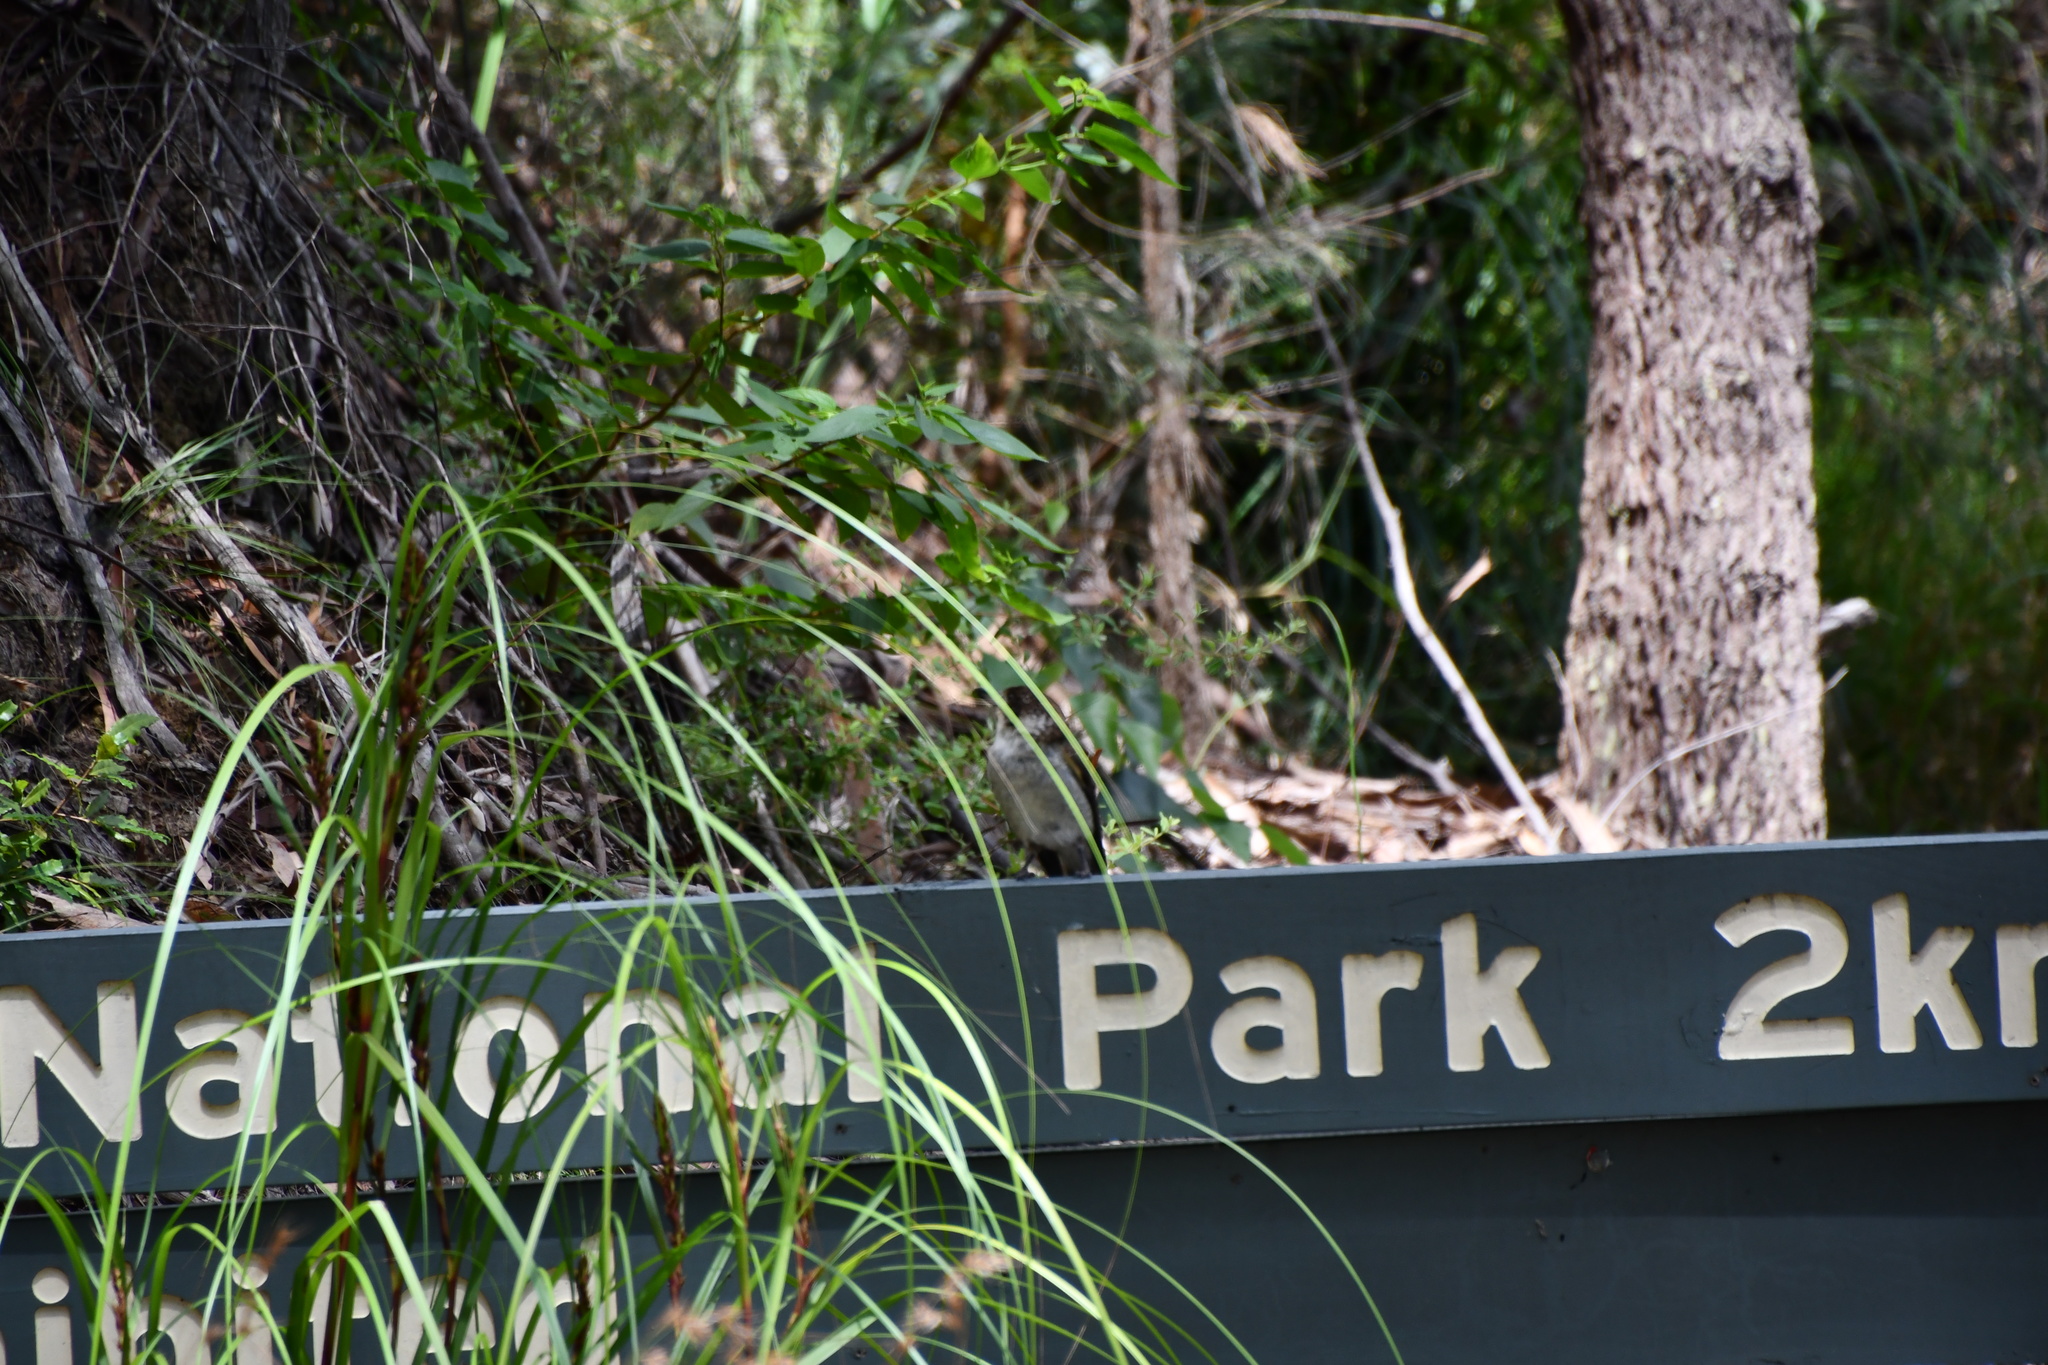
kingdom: Animalia
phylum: Chordata
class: Aves
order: Passeriformes
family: Cracticidae
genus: Cracticus
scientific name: Cracticus torquatus
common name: Grey butcherbird
